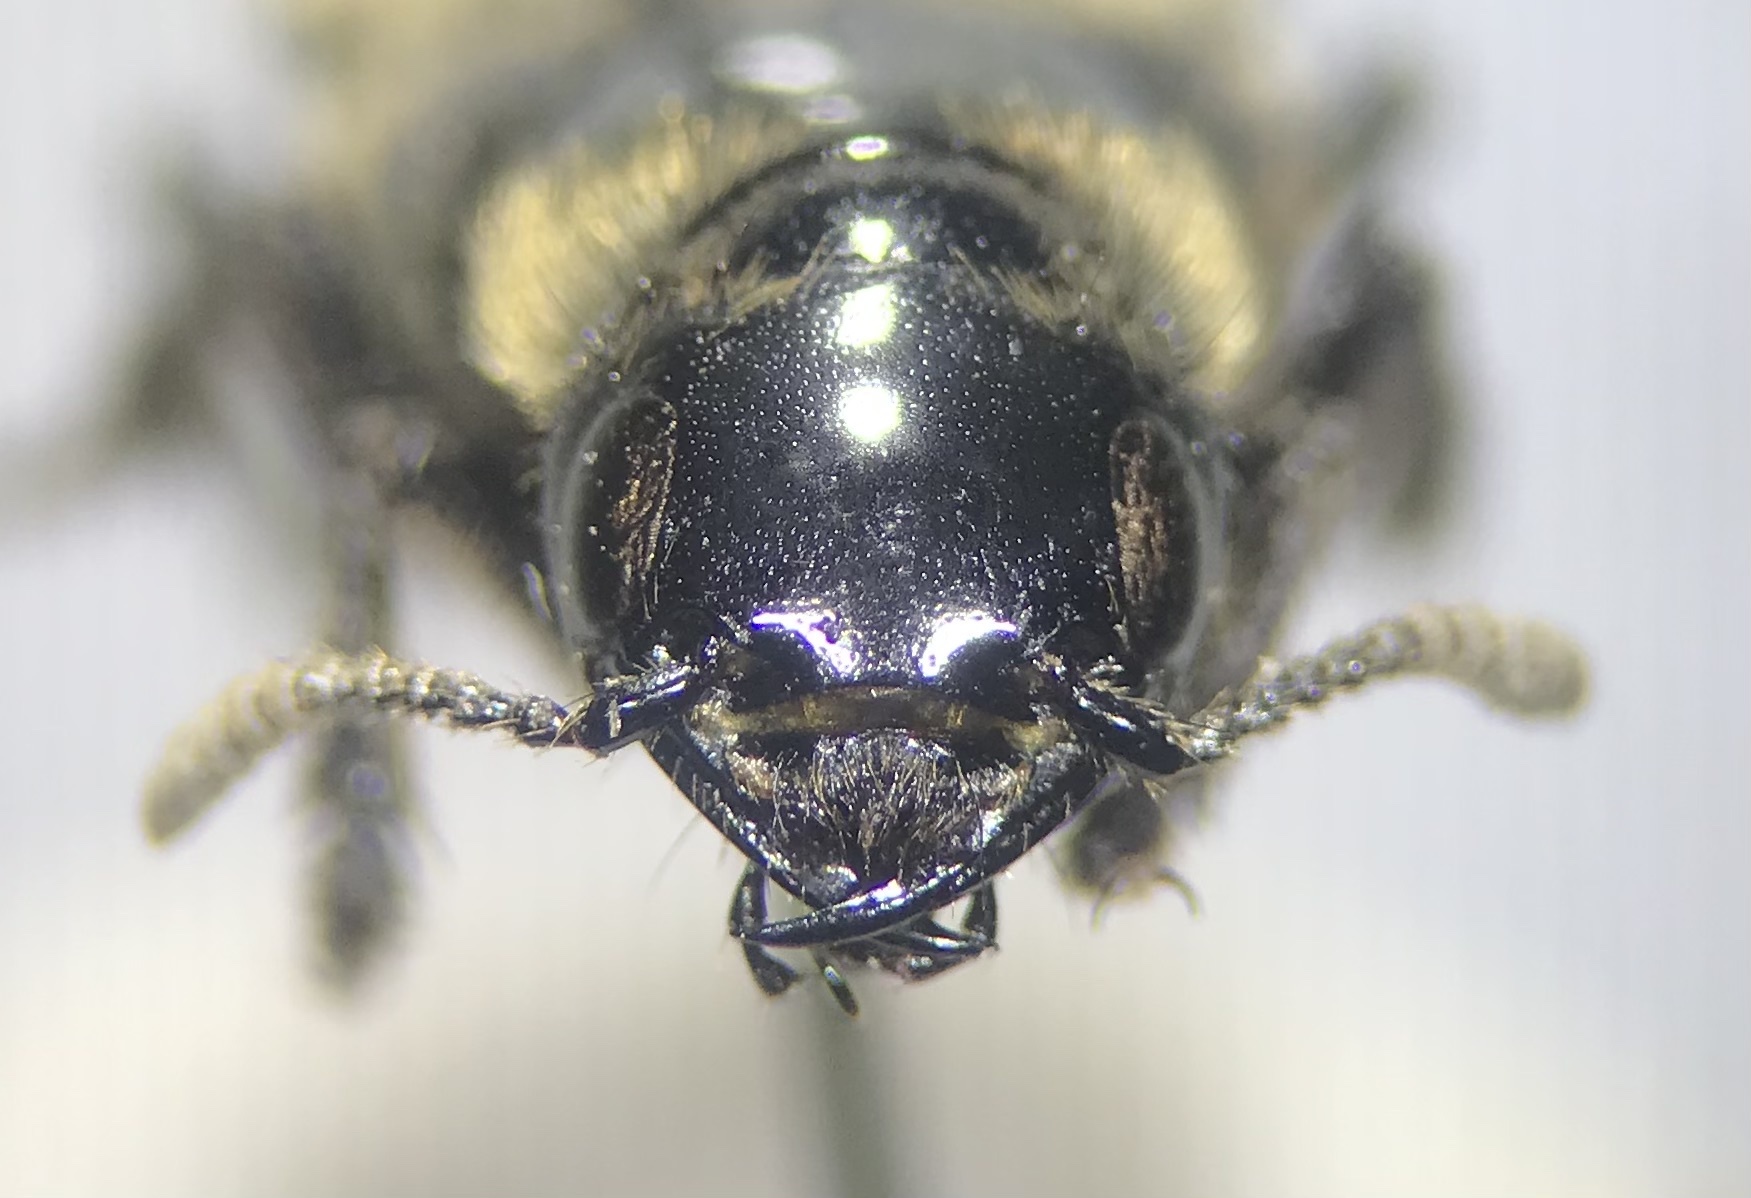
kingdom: Animalia
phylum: Arthropoda
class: Insecta
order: Coleoptera
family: Staphylinidae
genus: Creophilus
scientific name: Creophilus maxillosus
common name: Hairy rove beetle
